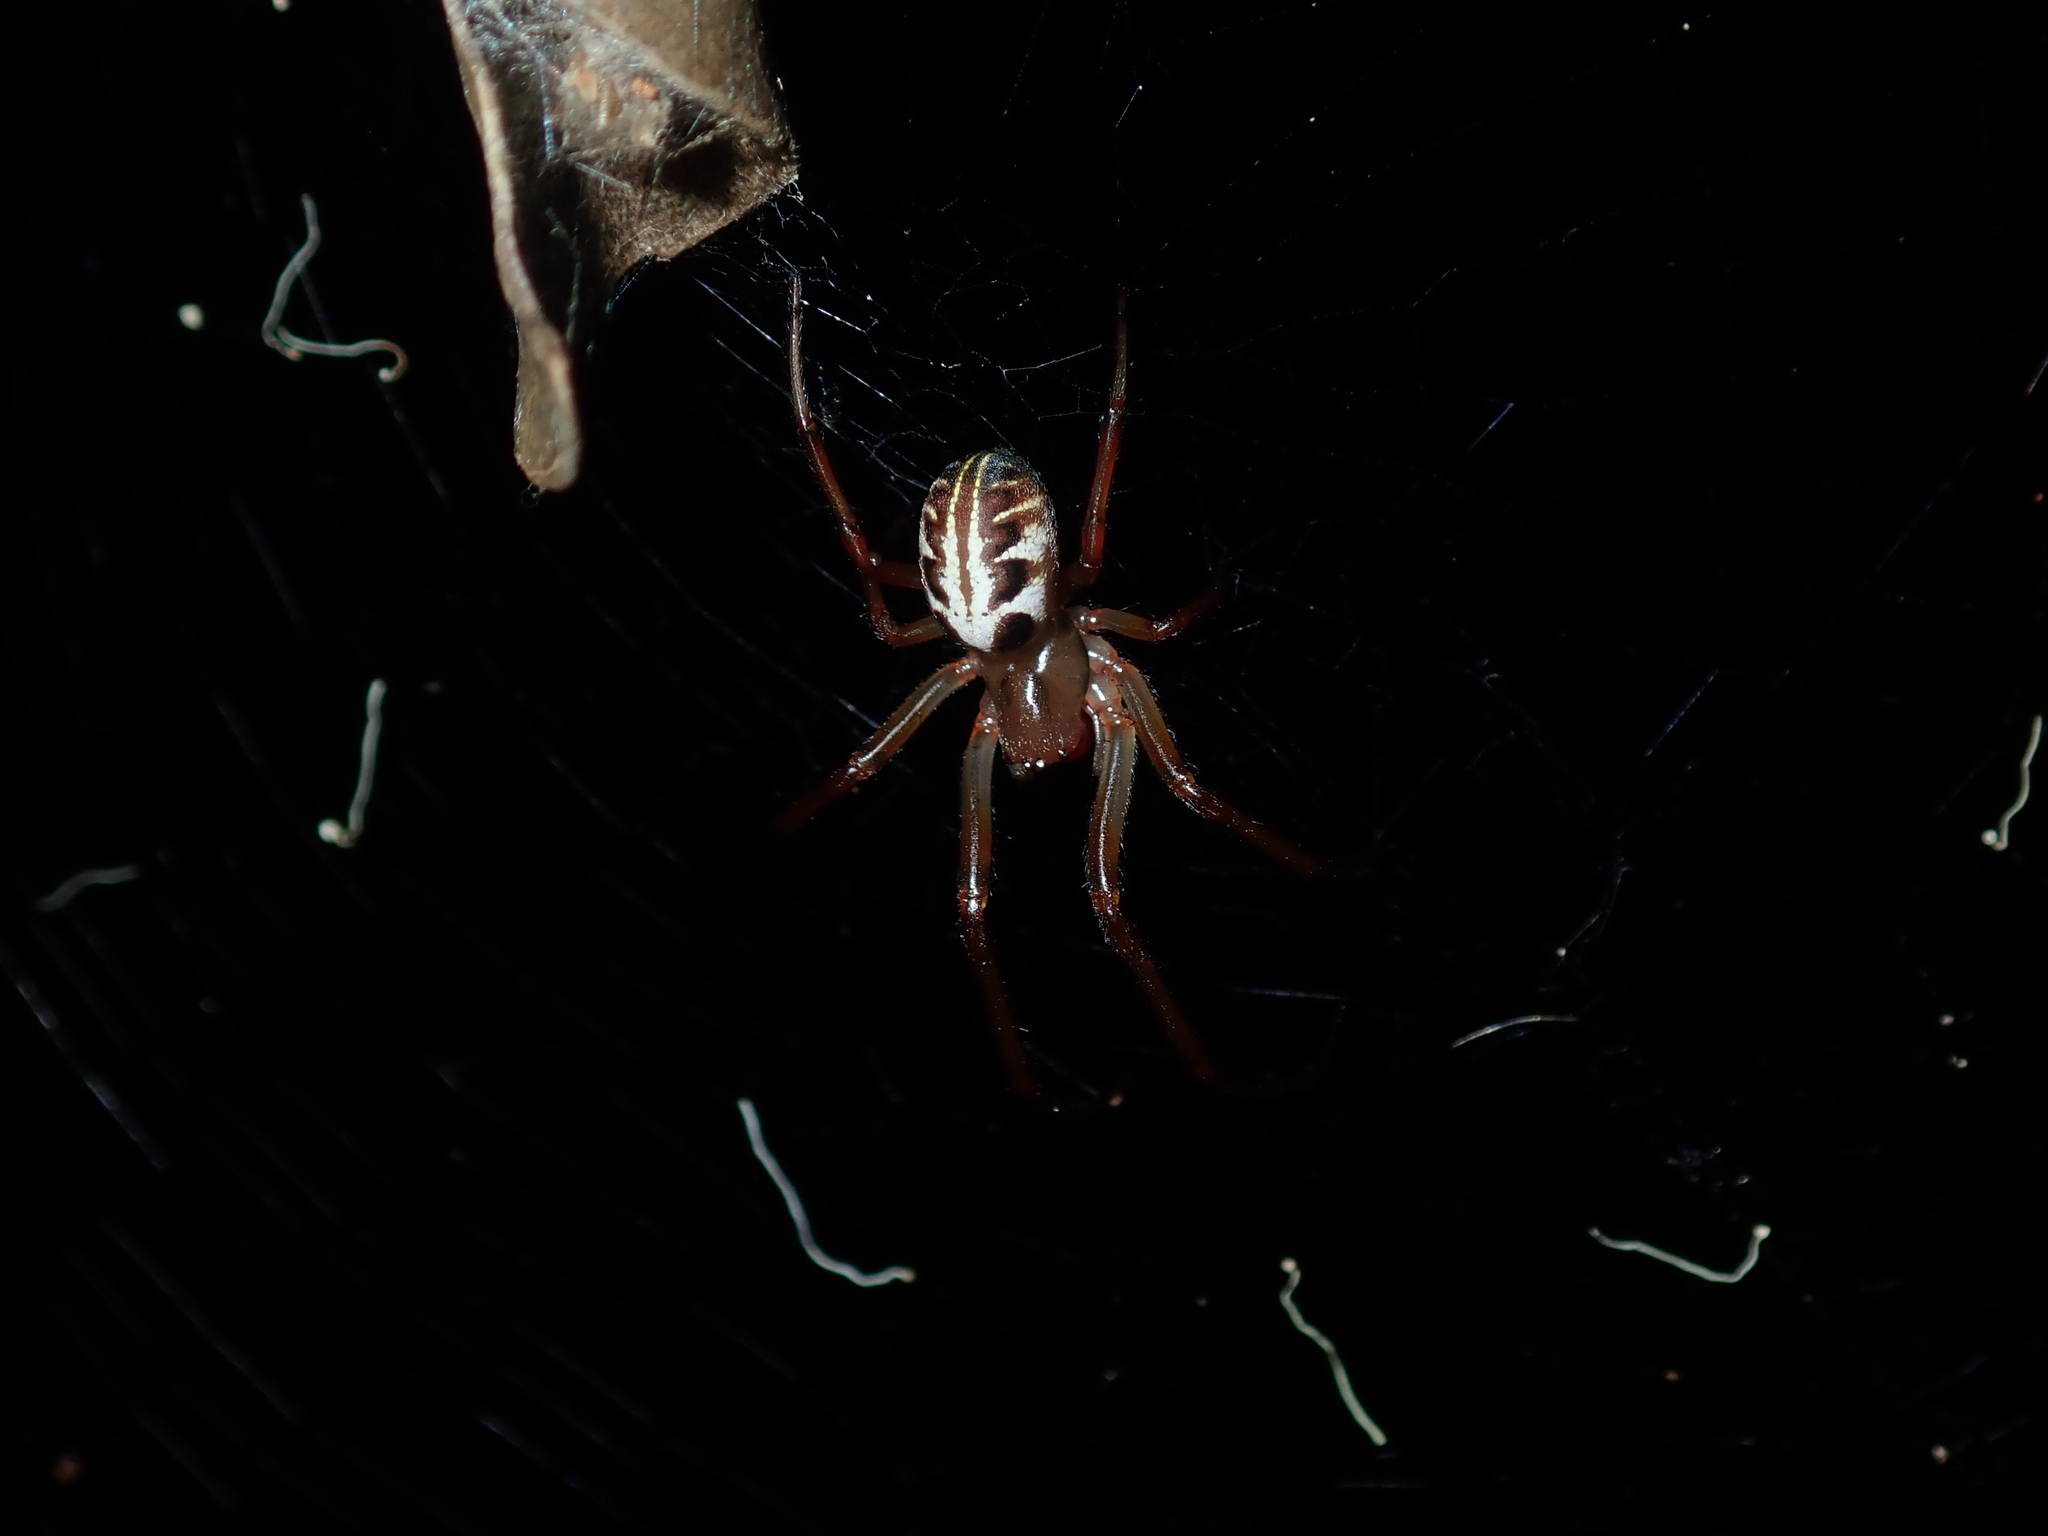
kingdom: Animalia
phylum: Arthropoda
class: Arachnida
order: Araneae
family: Araneidae
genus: Phonognatha
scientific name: Phonognatha graeffei
